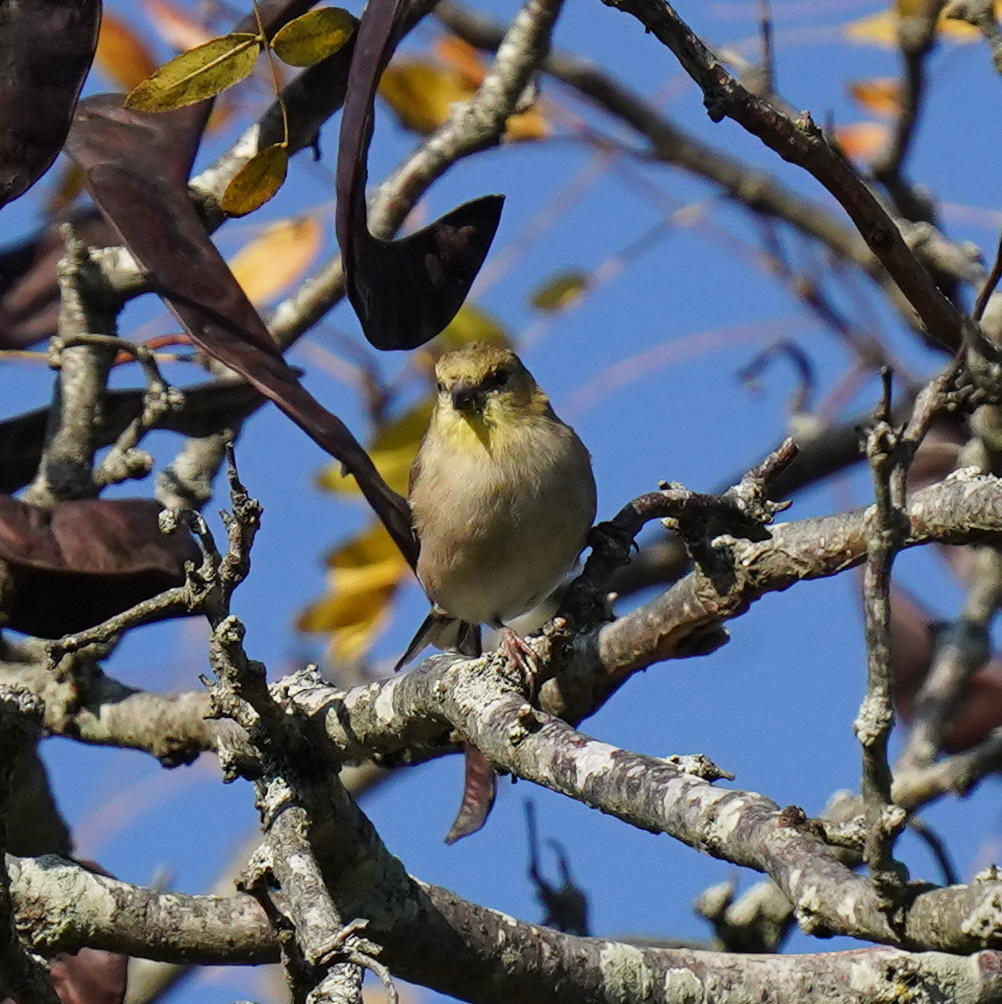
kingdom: Animalia
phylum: Chordata
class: Aves
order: Passeriformes
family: Fringillidae
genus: Spinus
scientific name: Spinus tristis
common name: American goldfinch
